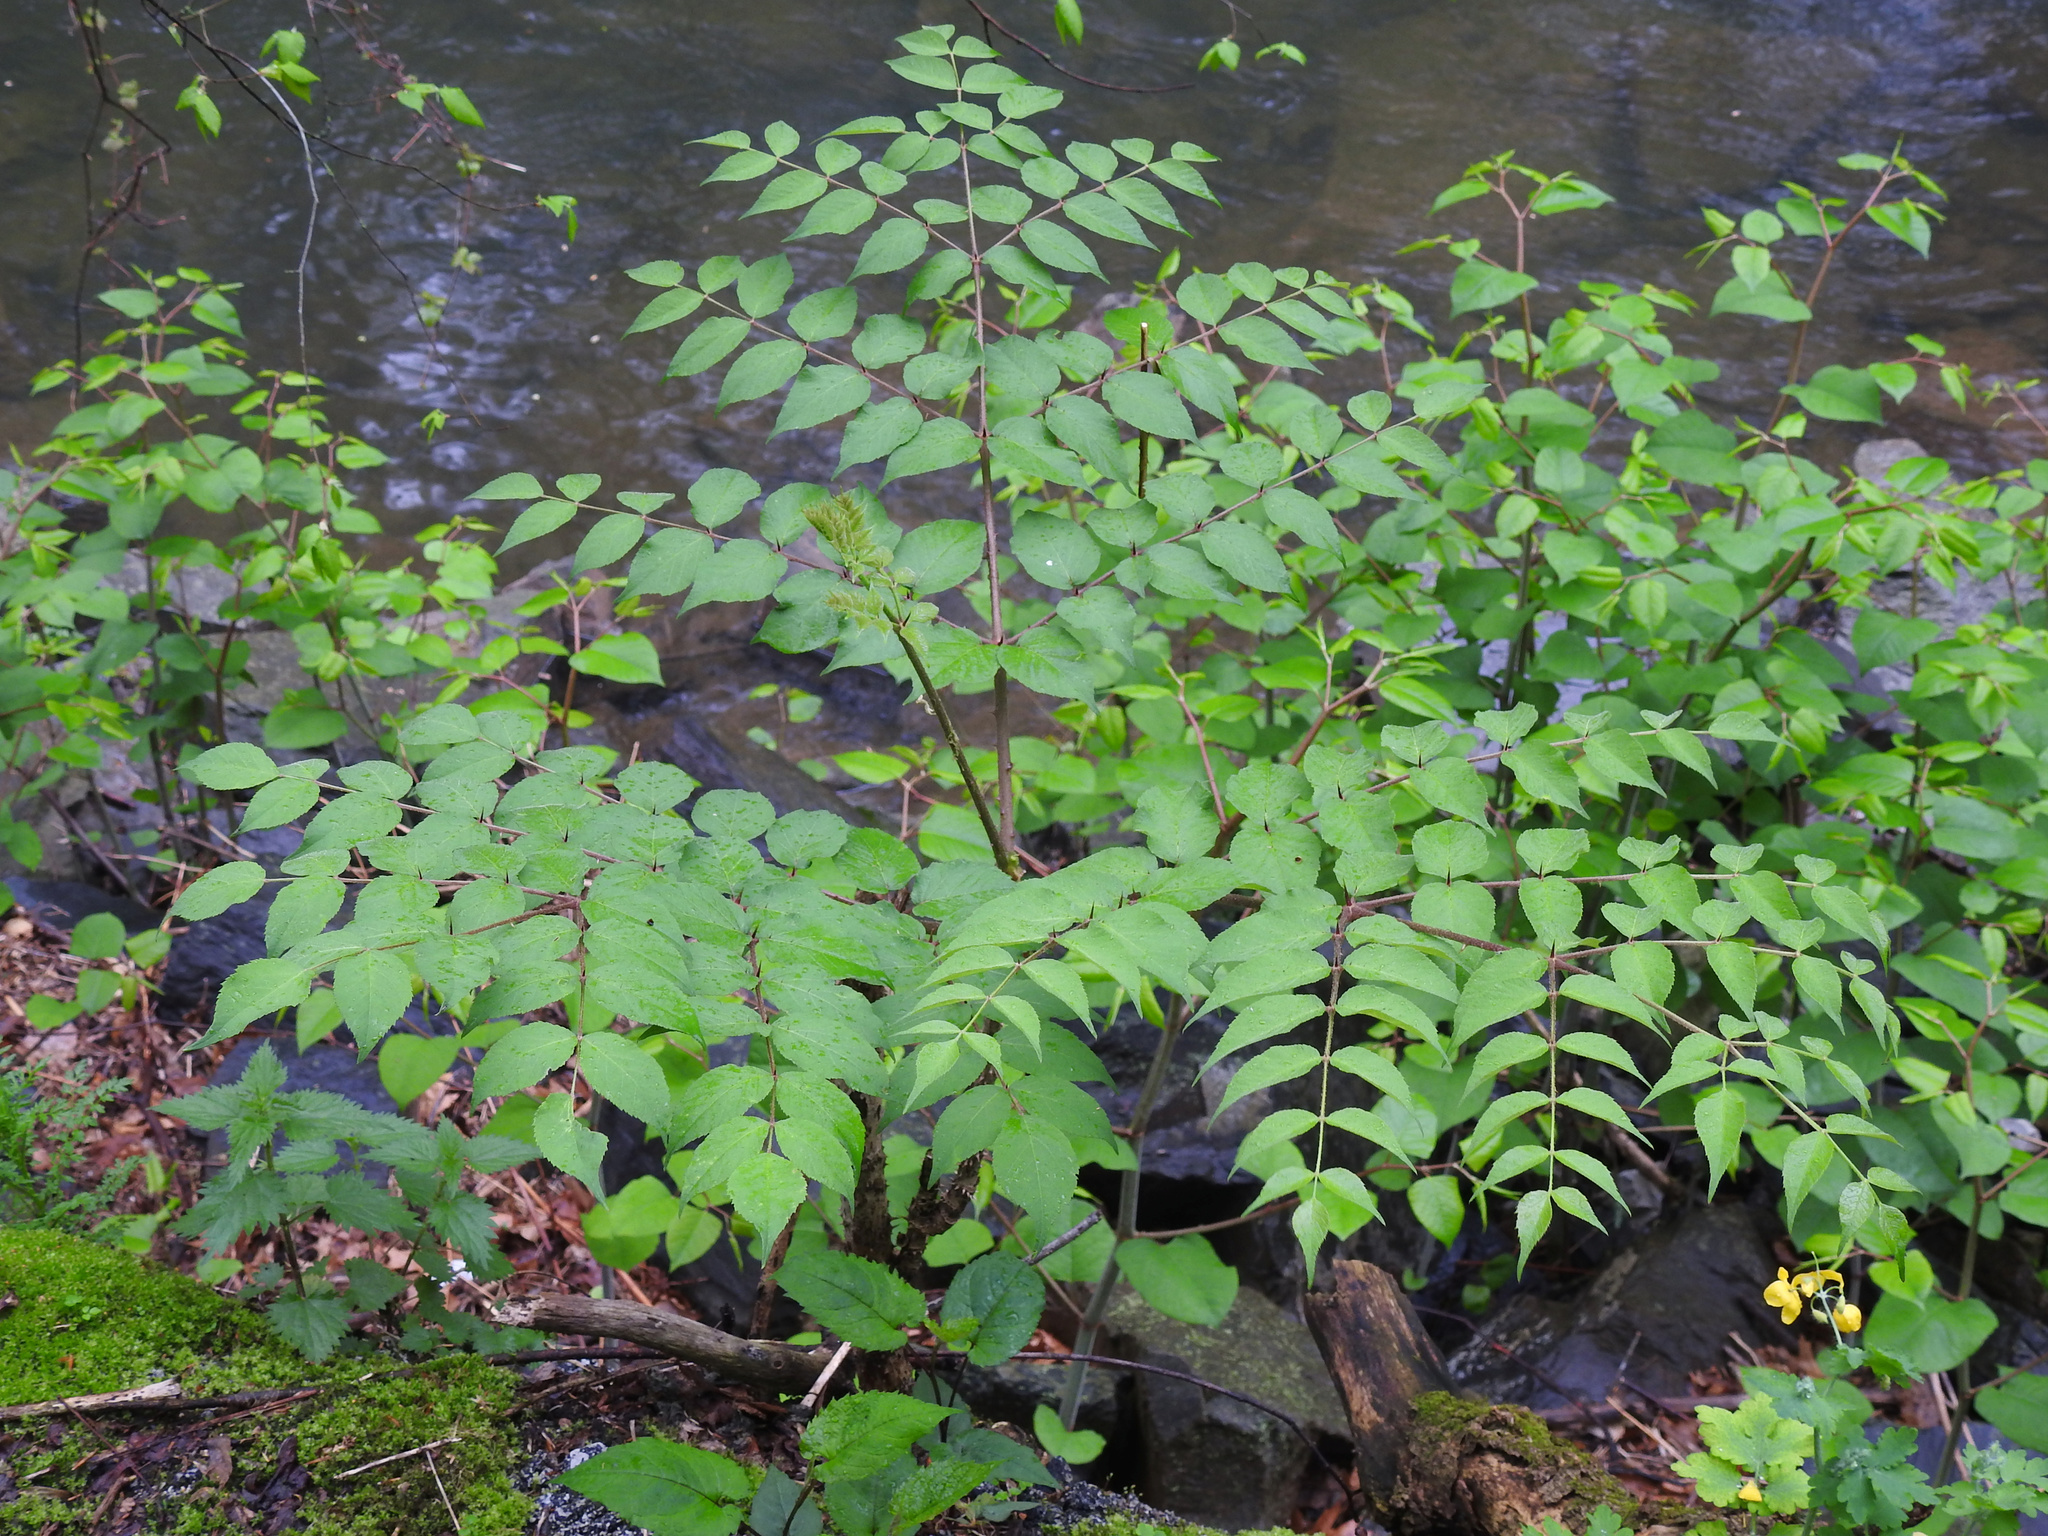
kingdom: Plantae
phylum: Tracheophyta
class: Magnoliopsida
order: Apiales
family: Araliaceae
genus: Aralia
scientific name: Aralia elata
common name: Japanese angelica-tree
